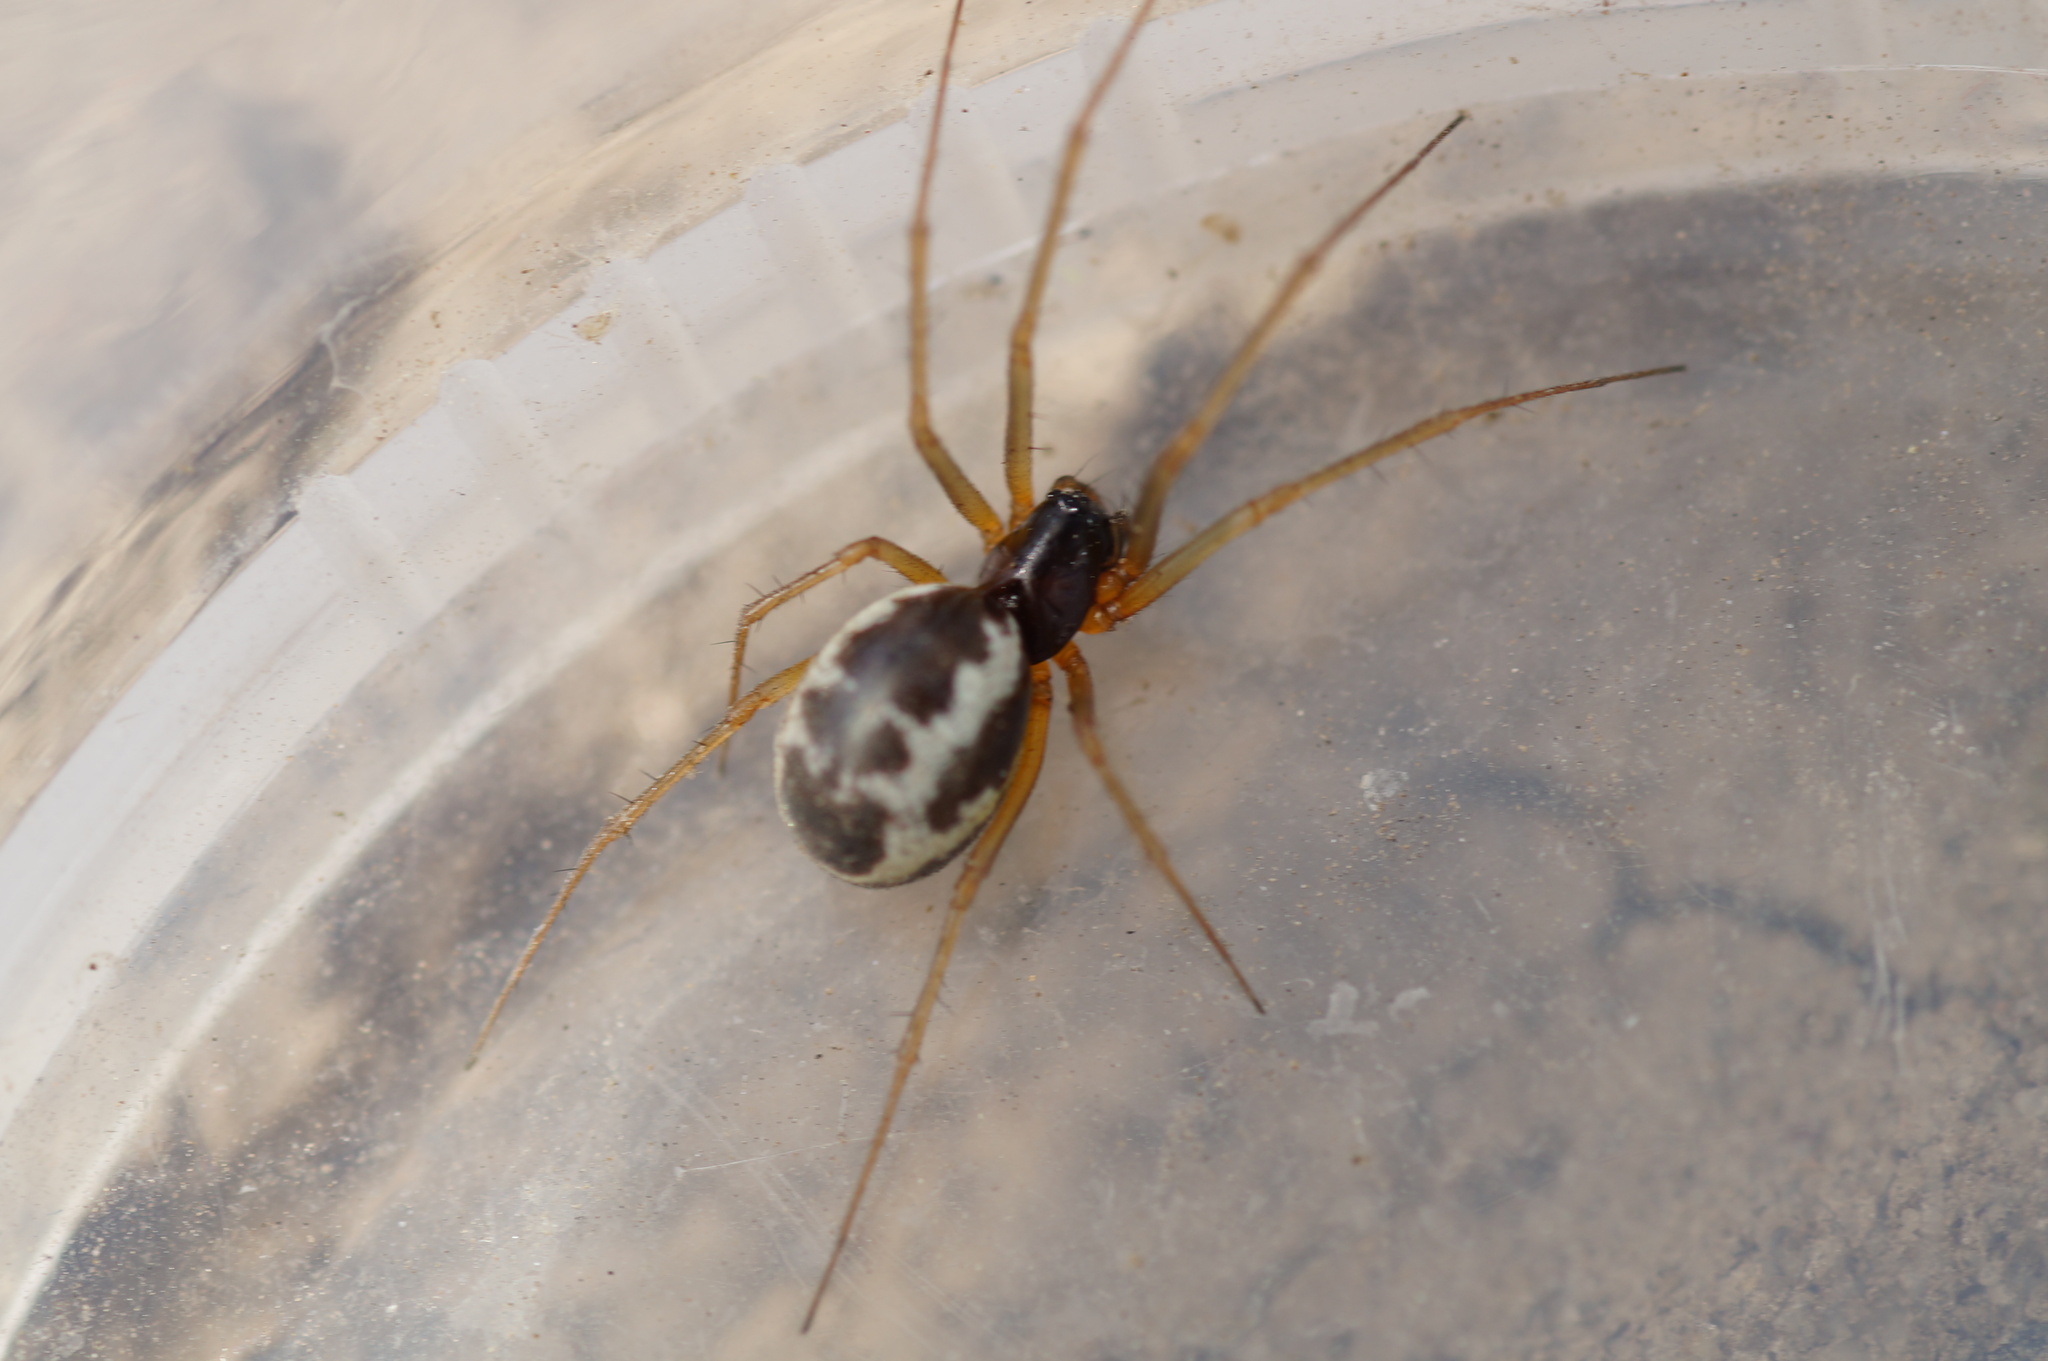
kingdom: Animalia
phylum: Arthropoda
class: Arachnida
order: Araneae
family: Linyphiidae
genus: Linyphia
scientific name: Linyphia hortensis
